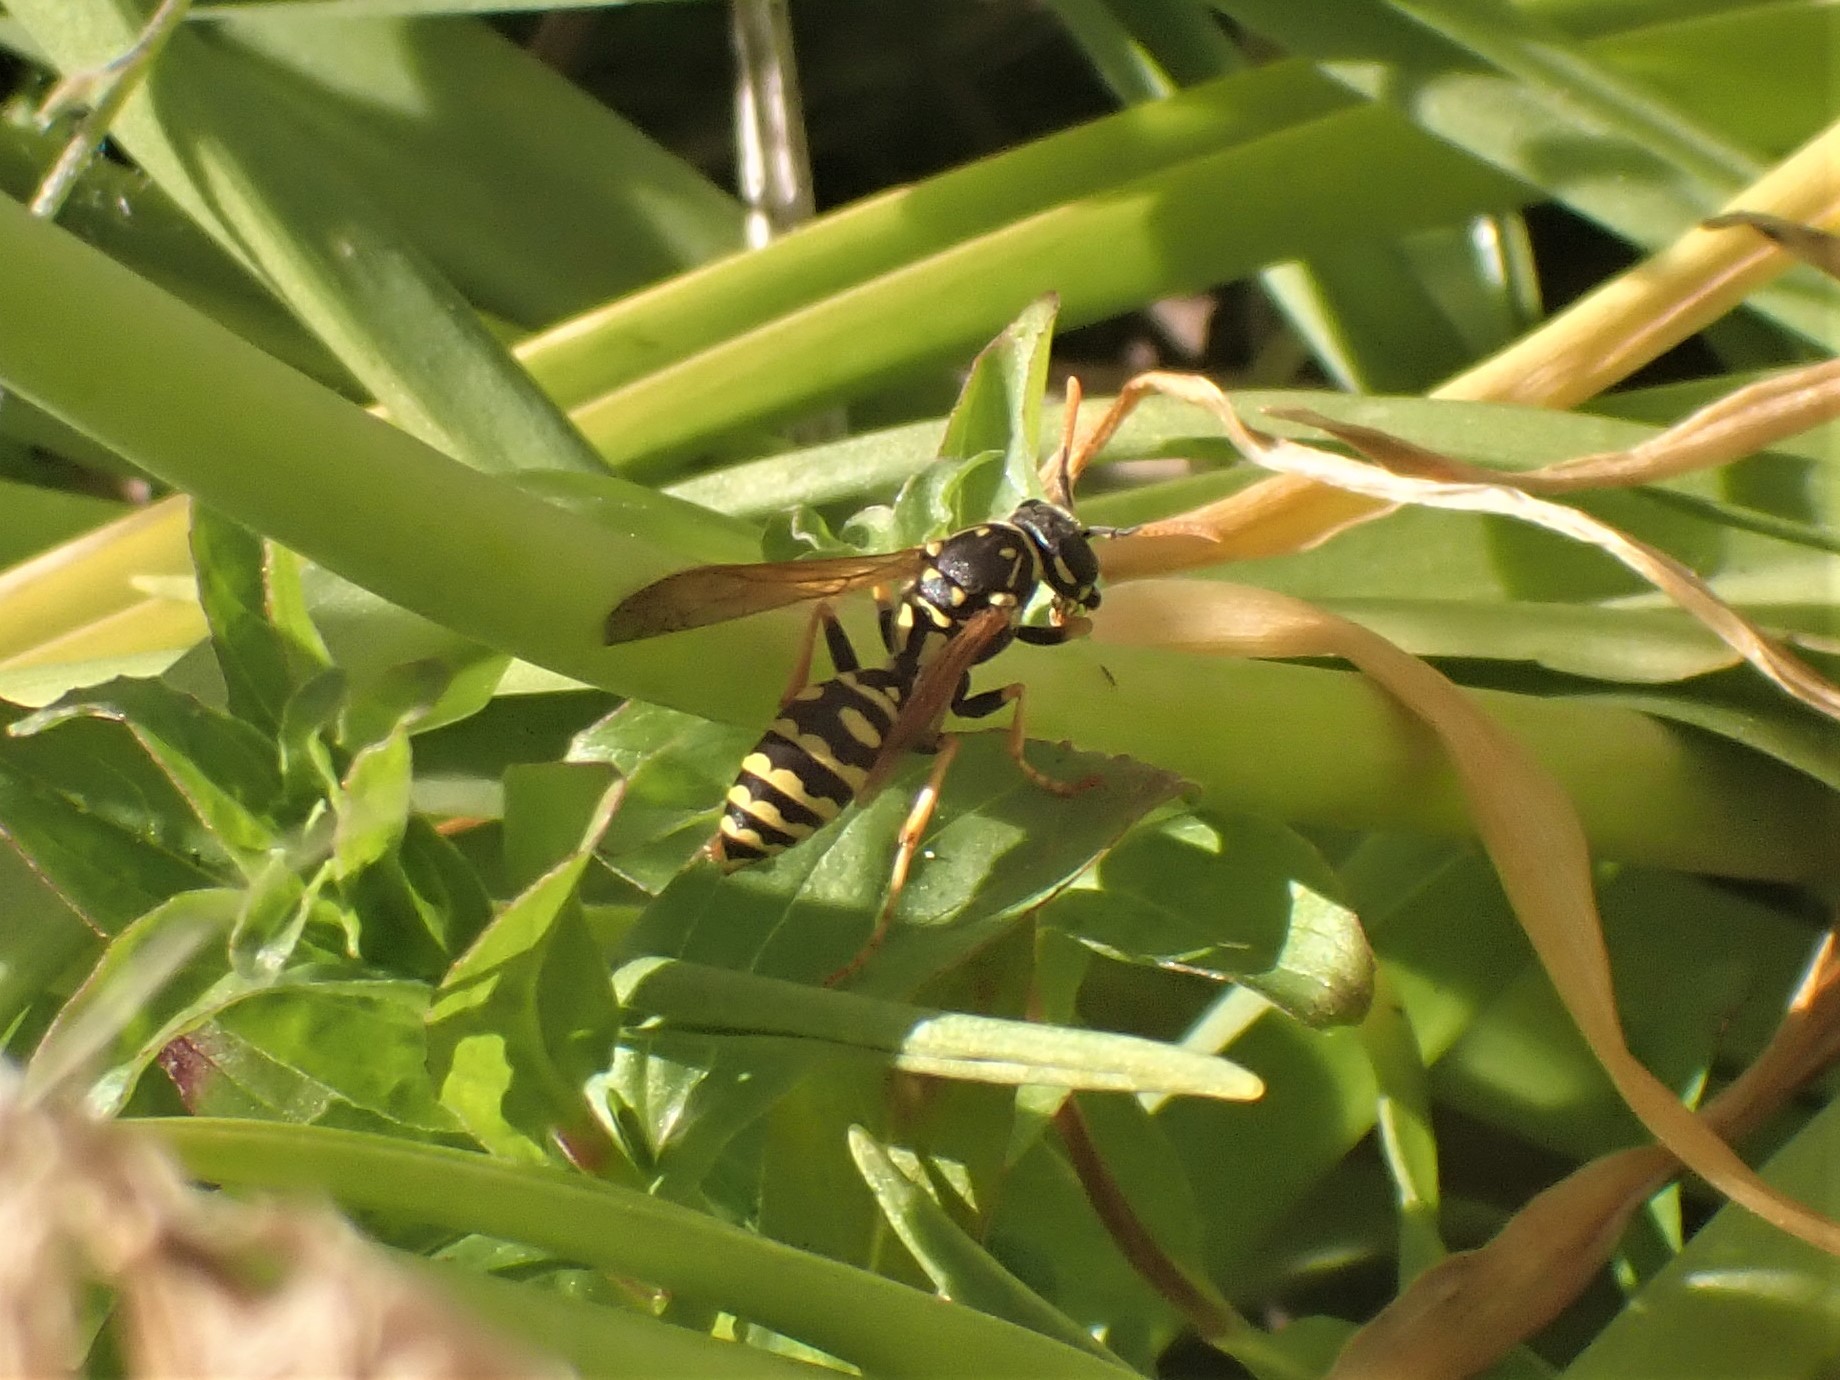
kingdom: Animalia
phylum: Arthropoda
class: Insecta
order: Hymenoptera
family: Eumenidae
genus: Polistes
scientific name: Polistes dominula
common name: Paper wasp
